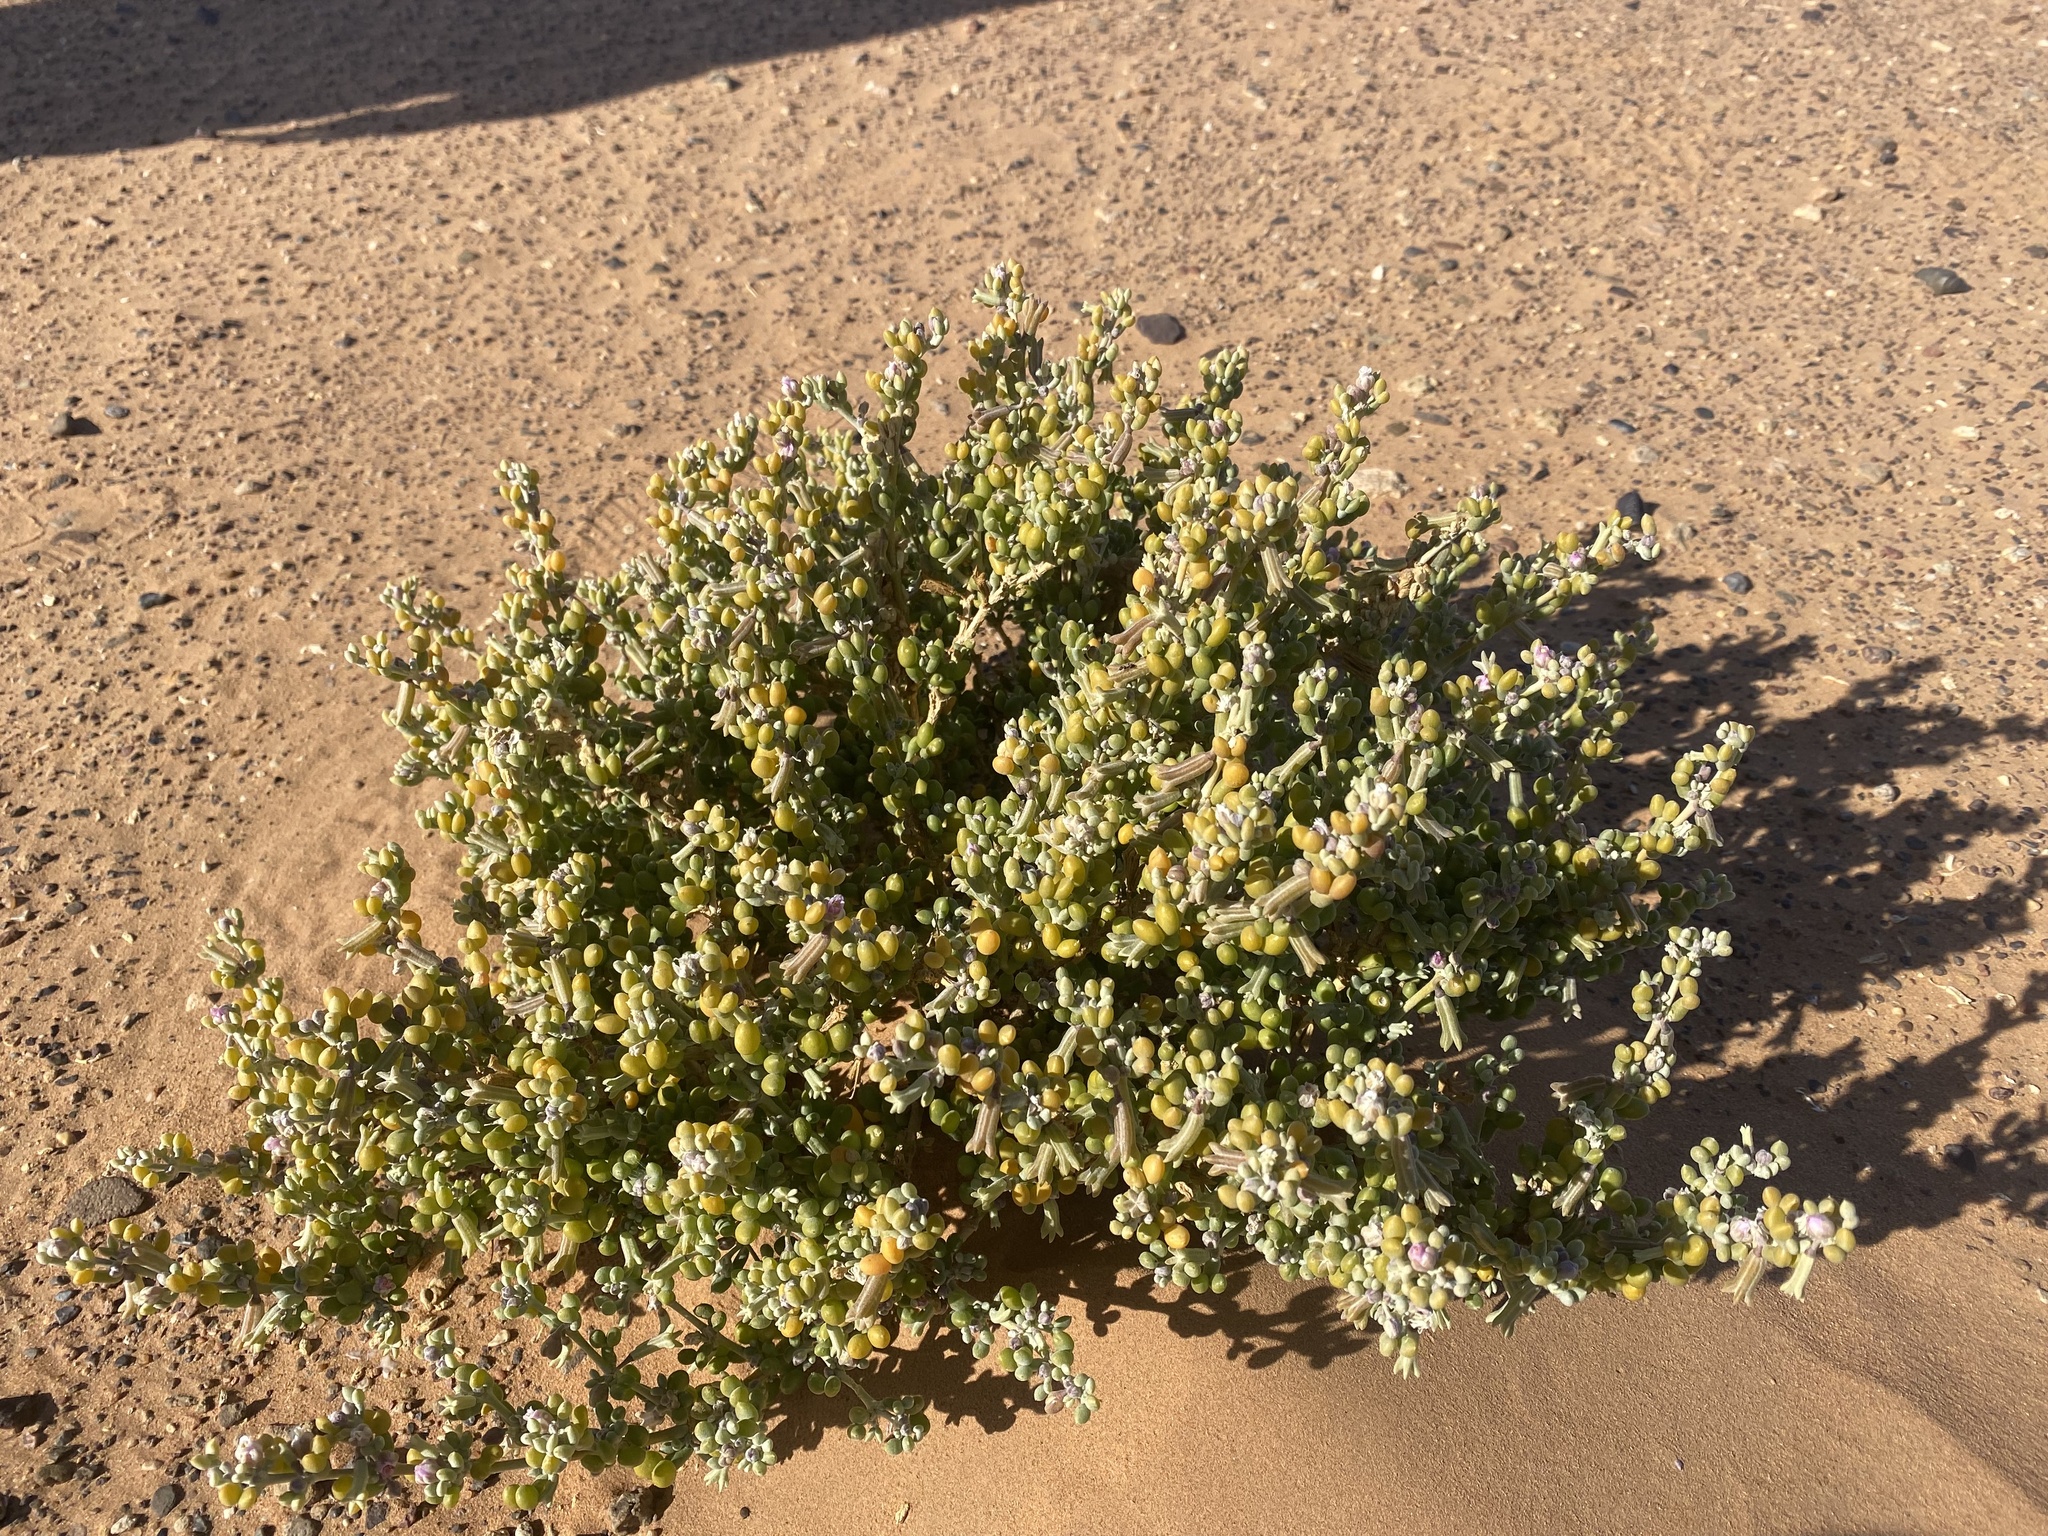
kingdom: Plantae
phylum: Tracheophyta
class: Magnoliopsida
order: Zygophyllales
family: Zygophyllaceae
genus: Tetraena
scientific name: Tetraena gaetula
